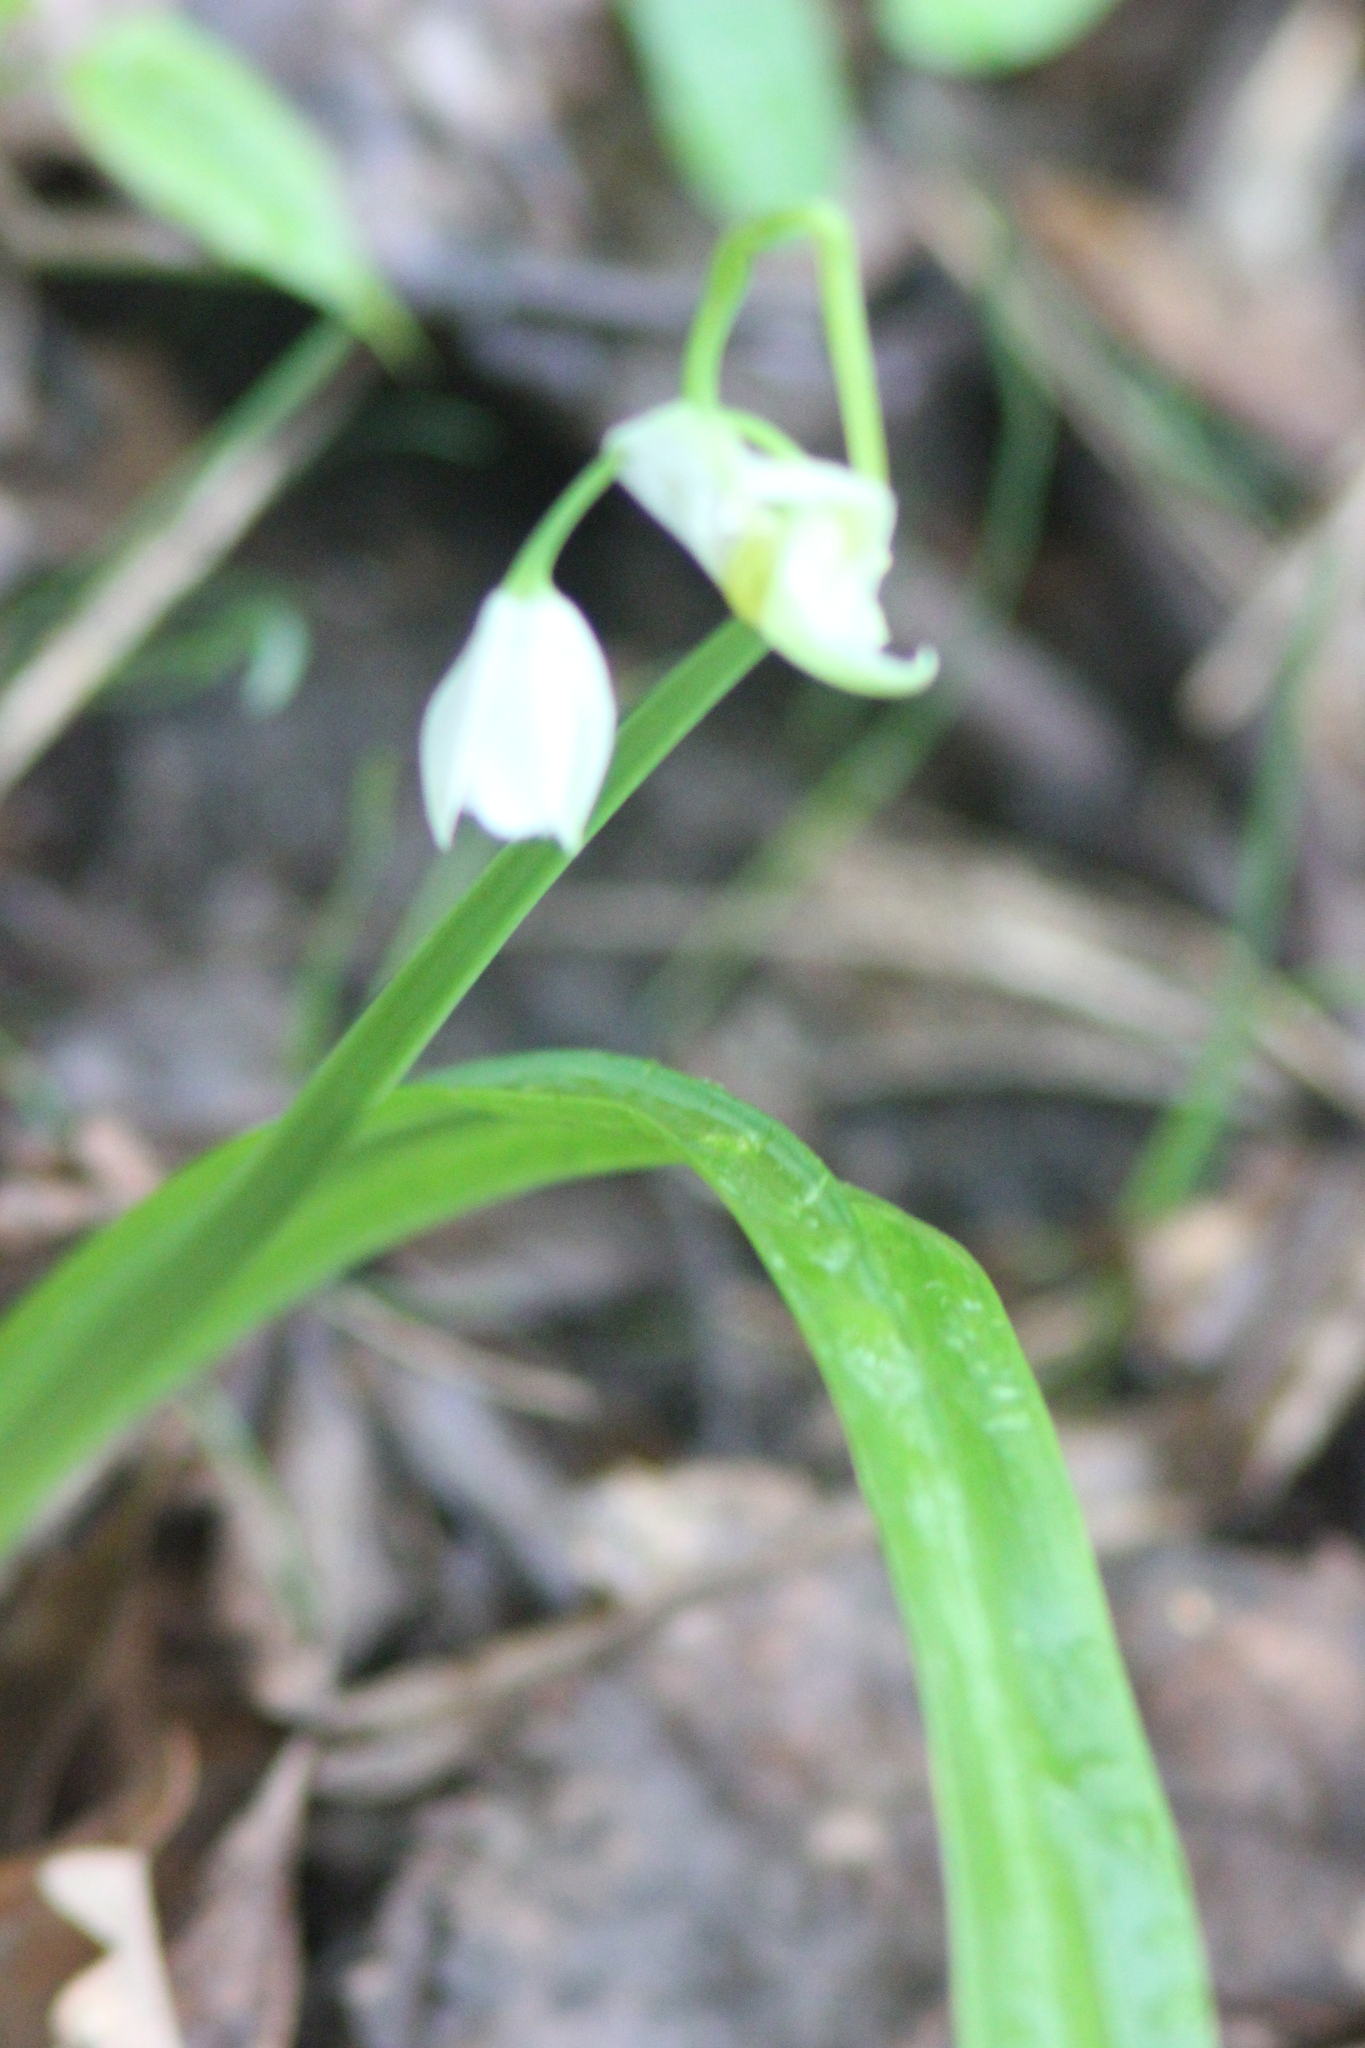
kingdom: Plantae
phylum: Tracheophyta
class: Liliopsida
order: Asparagales
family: Amaryllidaceae
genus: Allium
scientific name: Allium paradoxum
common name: Few-flowered garlic
